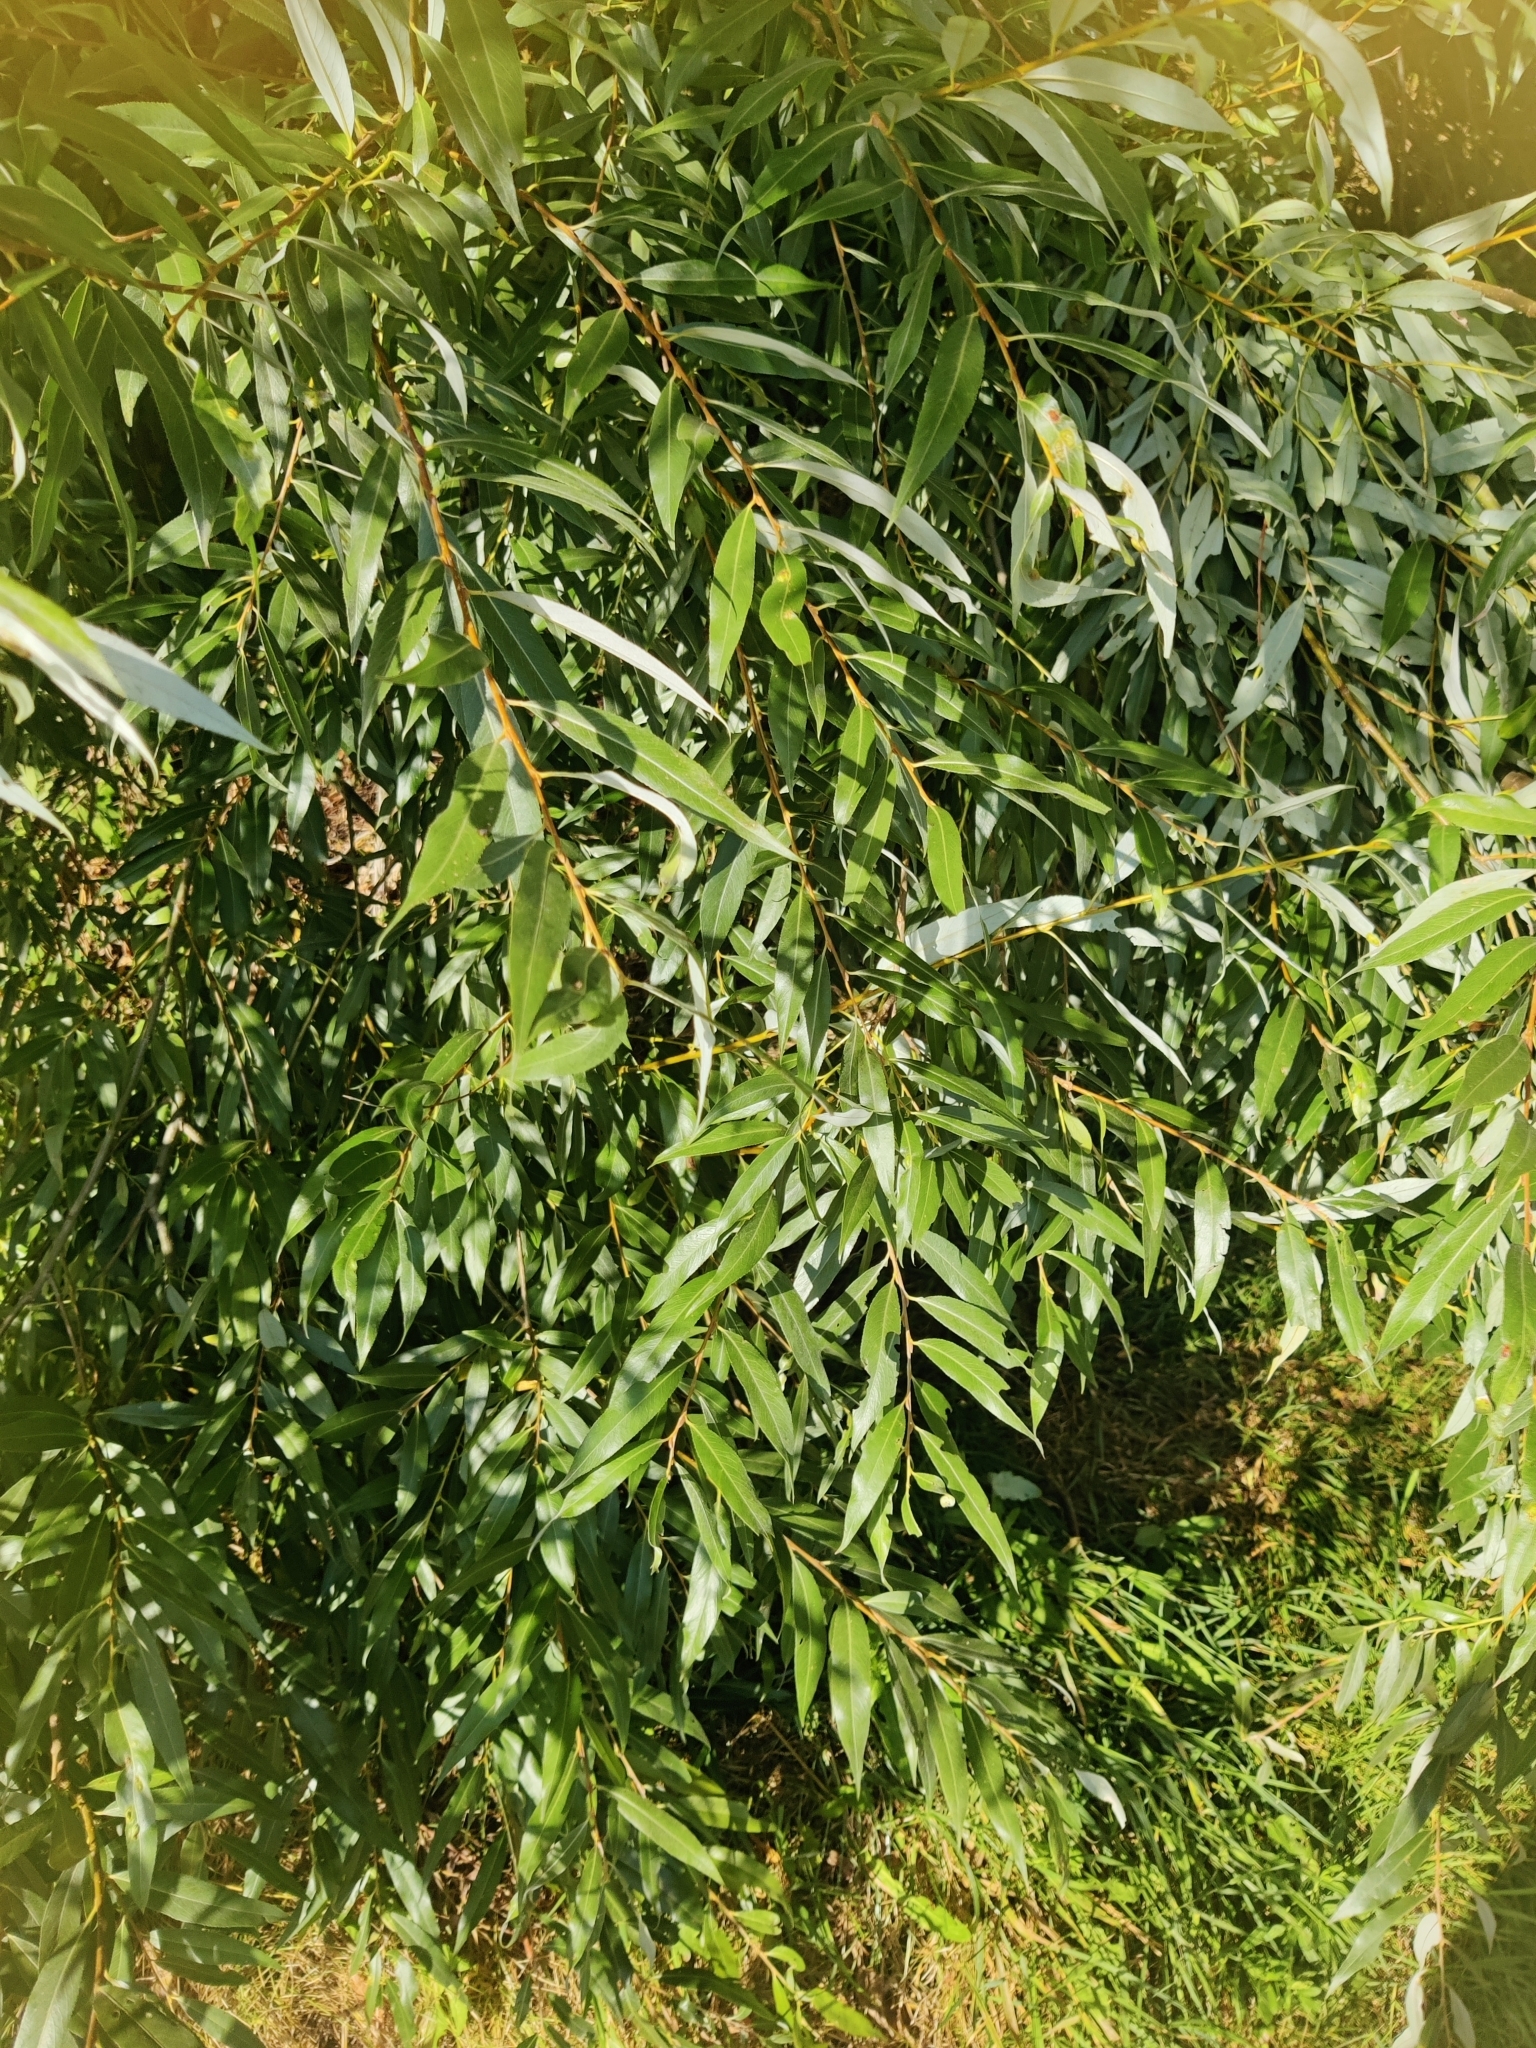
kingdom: Plantae
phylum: Tracheophyta
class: Magnoliopsida
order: Malpighiales
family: Salicaceae
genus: Salix
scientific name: Salix triandra
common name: Almond willow
